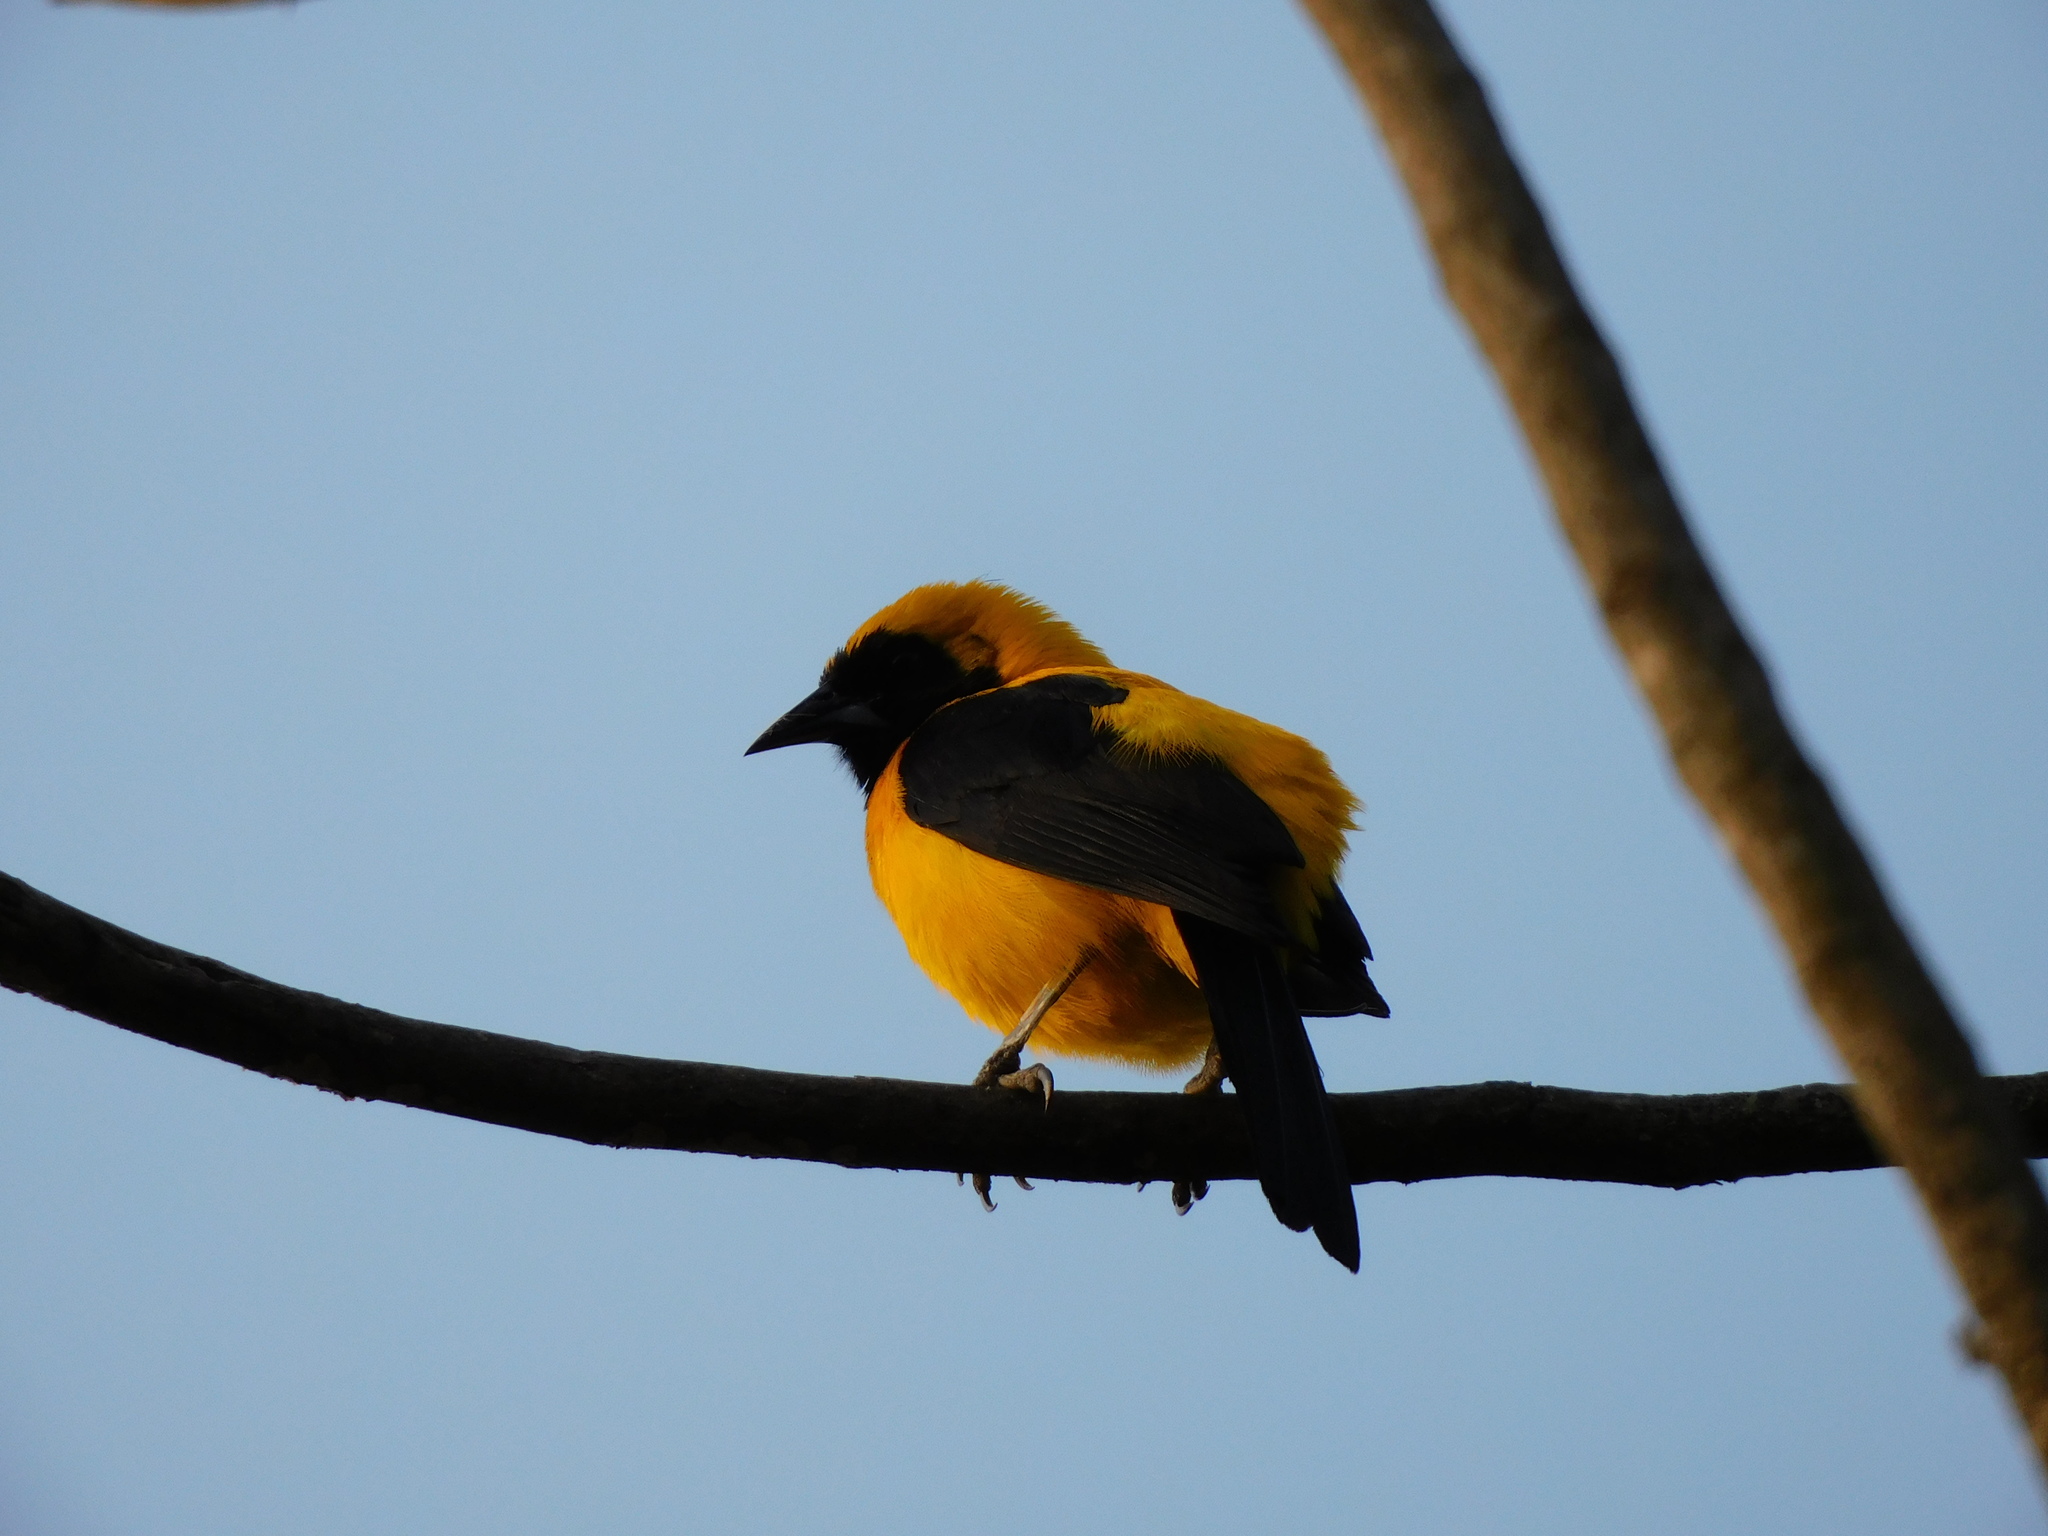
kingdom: Animalia
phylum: Chordata
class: Aves
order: Passeriformes
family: Icteridae
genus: Icterus
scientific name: Icterus chrysater
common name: Yellow-backed oriole
